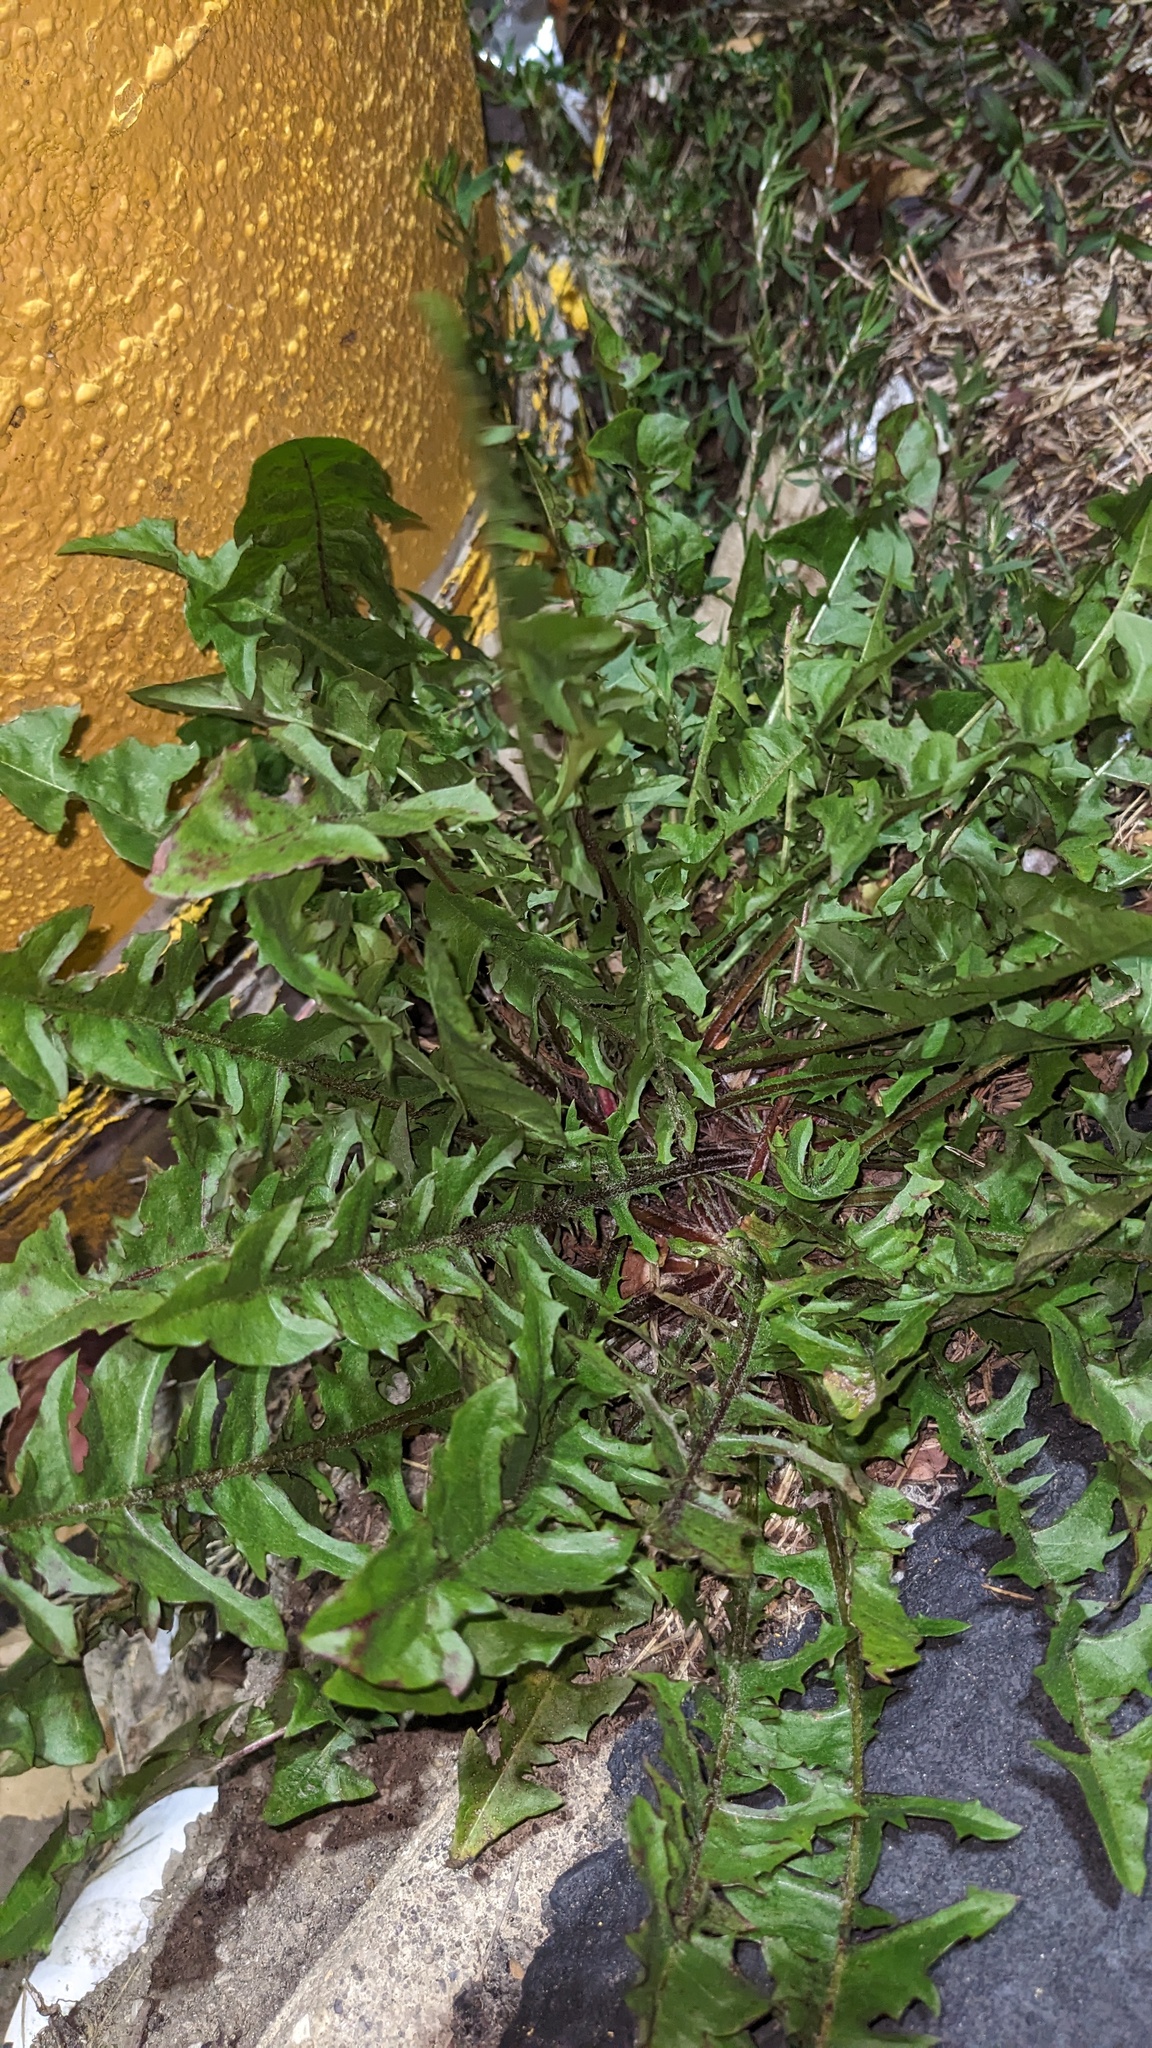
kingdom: Plantae
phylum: Tracheophyta
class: Magnoliopsida
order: Asterales
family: Asteraceae
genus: Taraxacum
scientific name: Taraxacum
